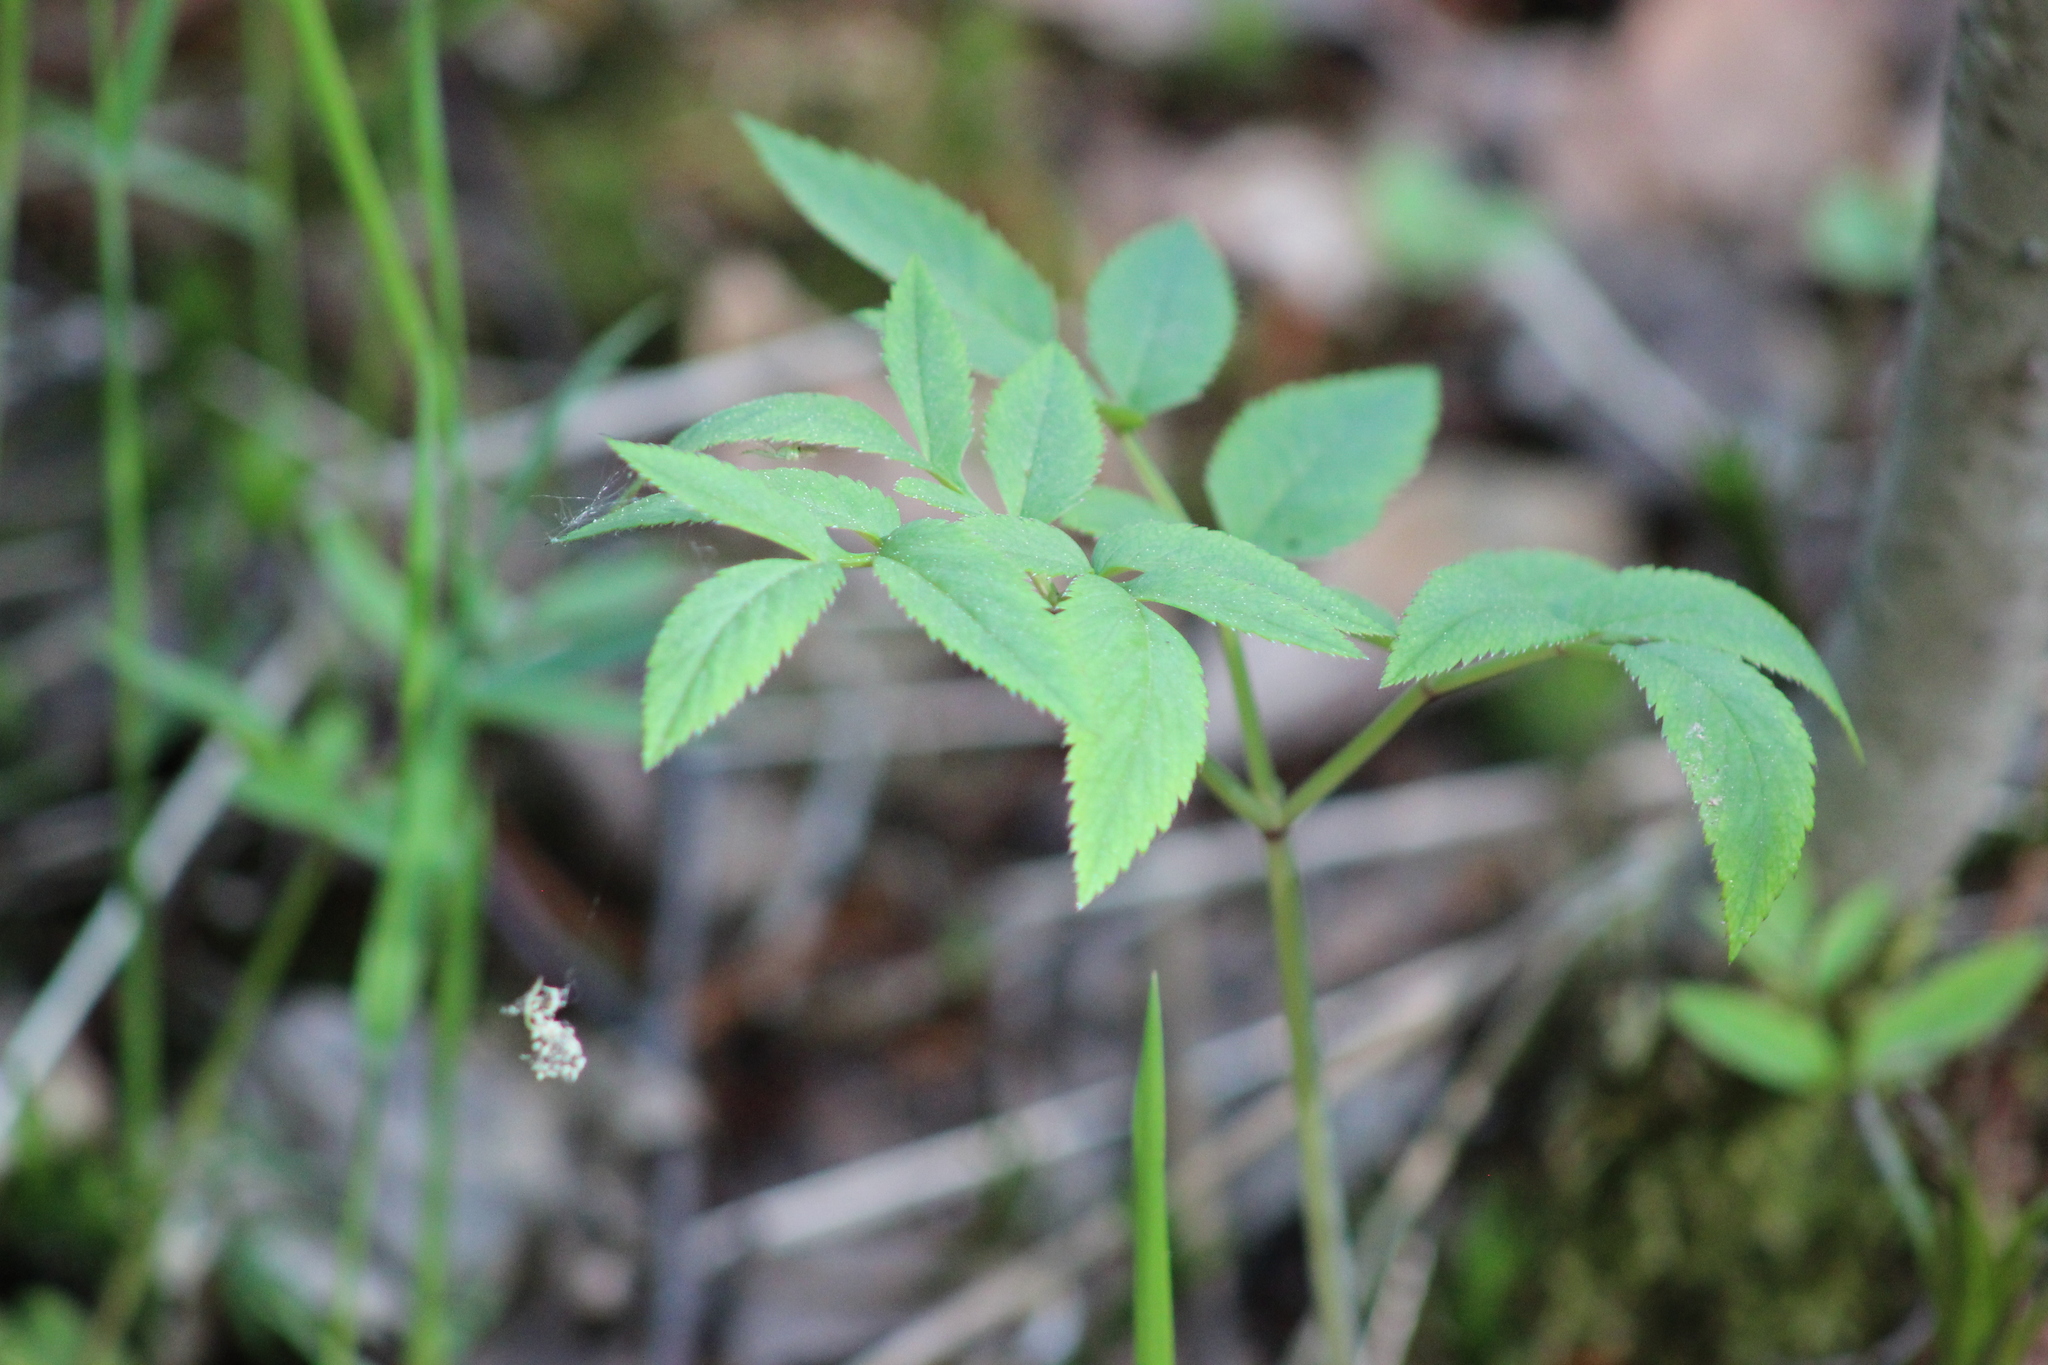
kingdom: Plantae
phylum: Tracheophyta
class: Magnoliopsida
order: Apiales
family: Apiaceae
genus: Angelica
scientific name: Angelica sylvestris
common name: Wild angelica
